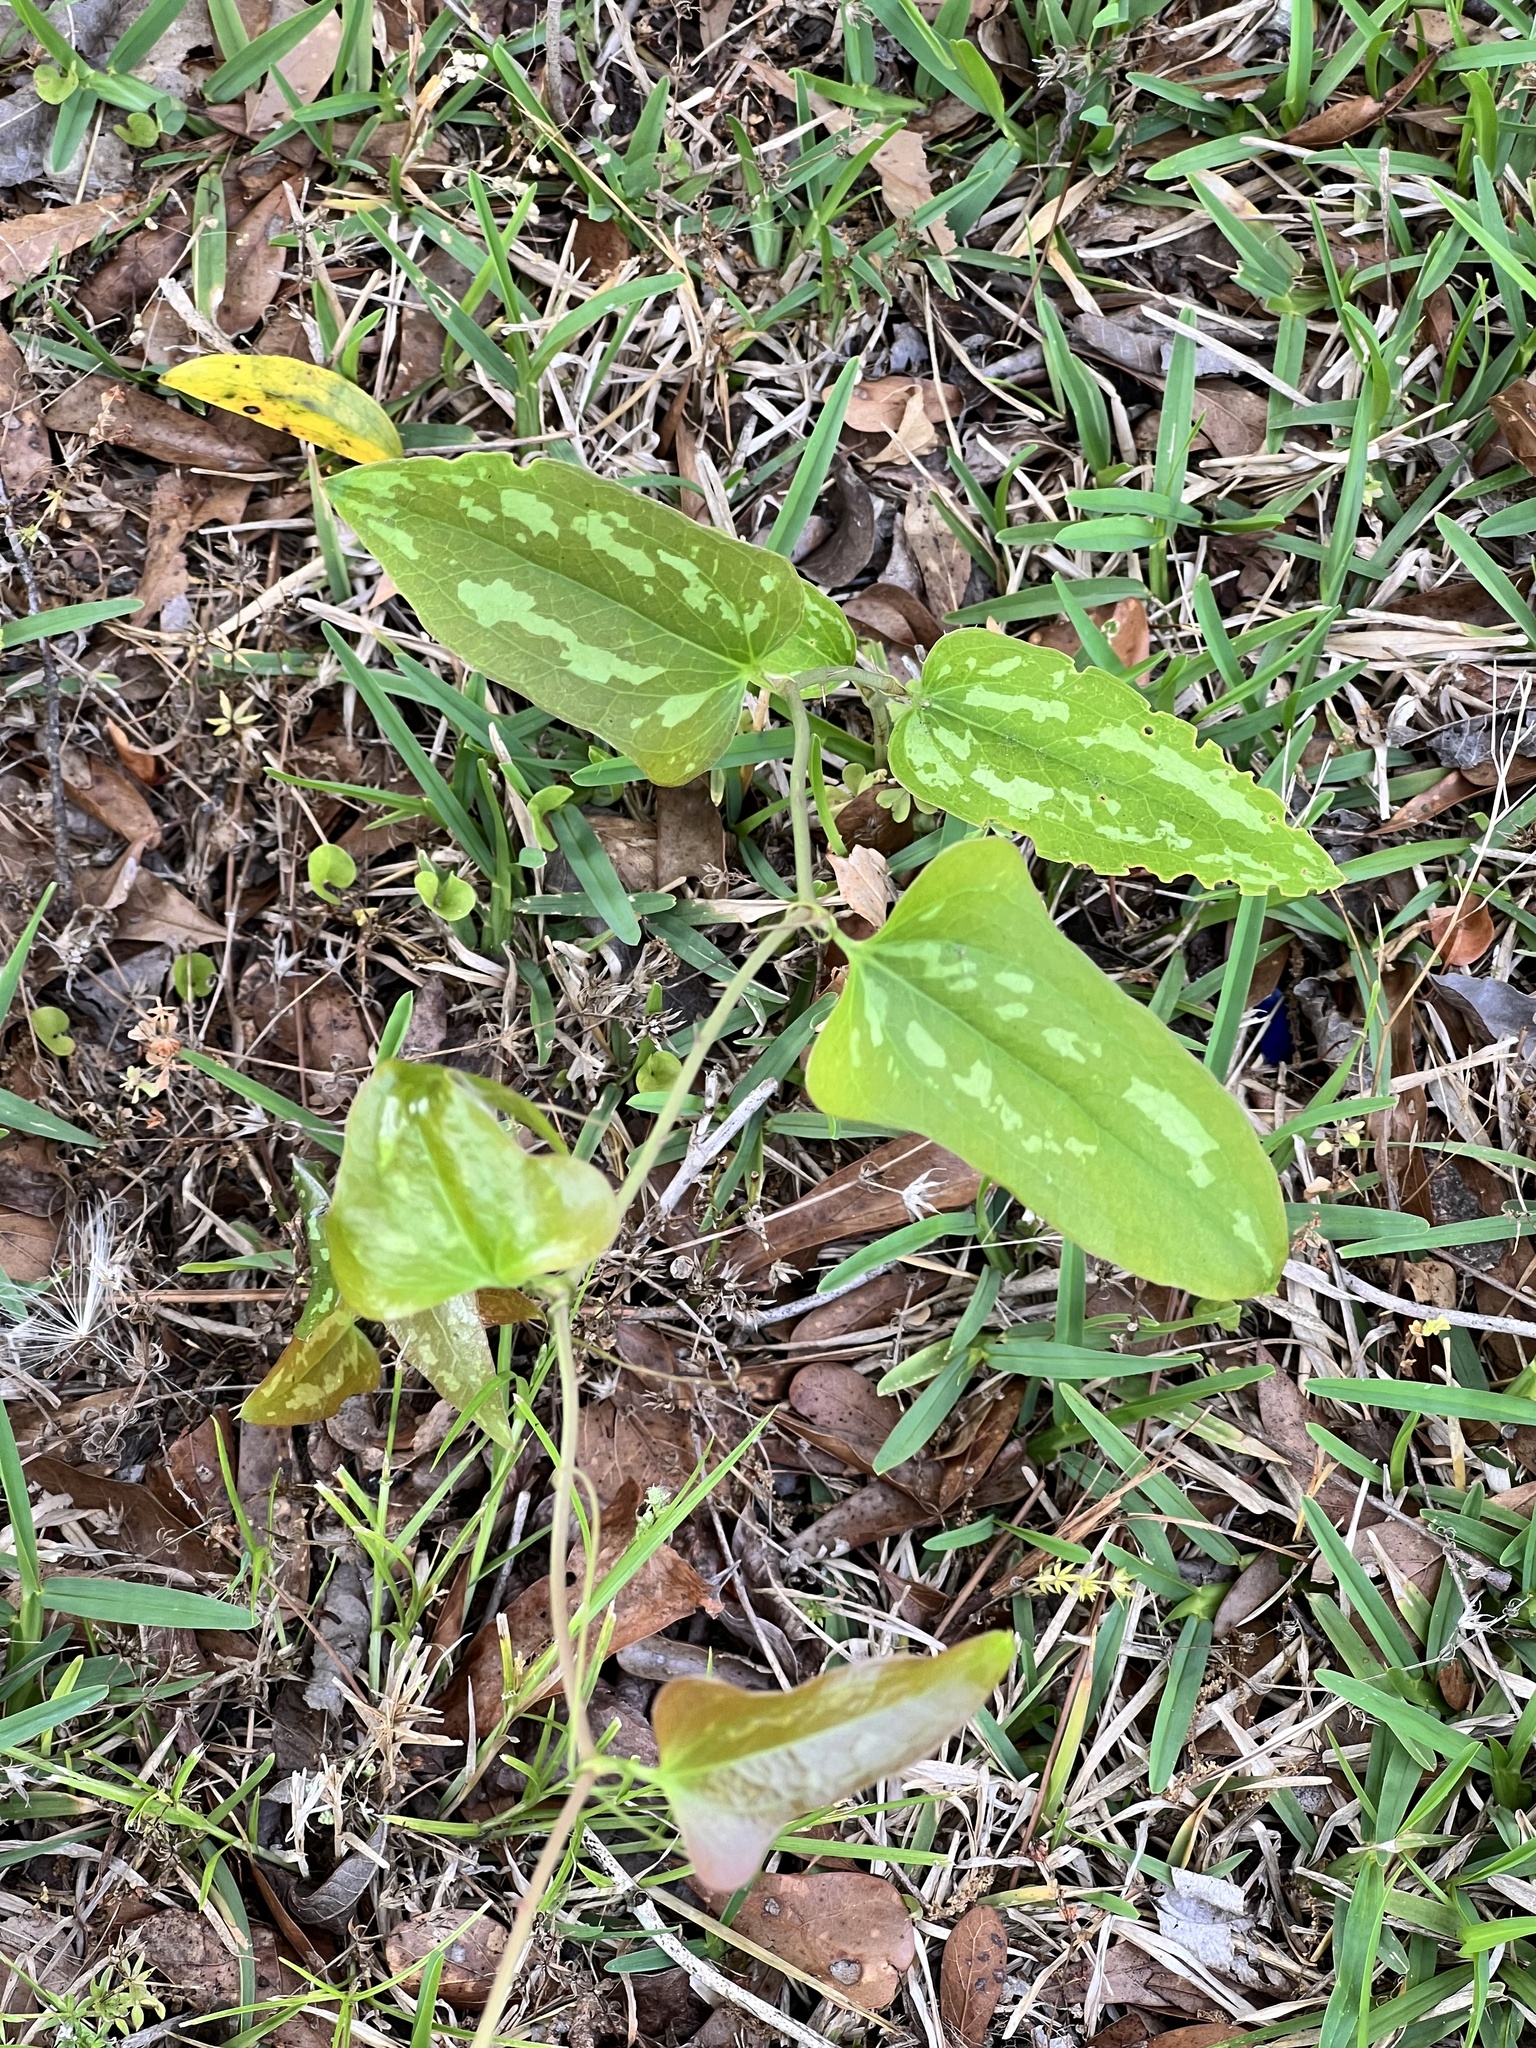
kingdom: Plantae
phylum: Tracheophyta
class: Liliopsida
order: Liliales
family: Smilacaceae
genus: Smilax
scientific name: Smilax bona-nox
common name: Catbrier
